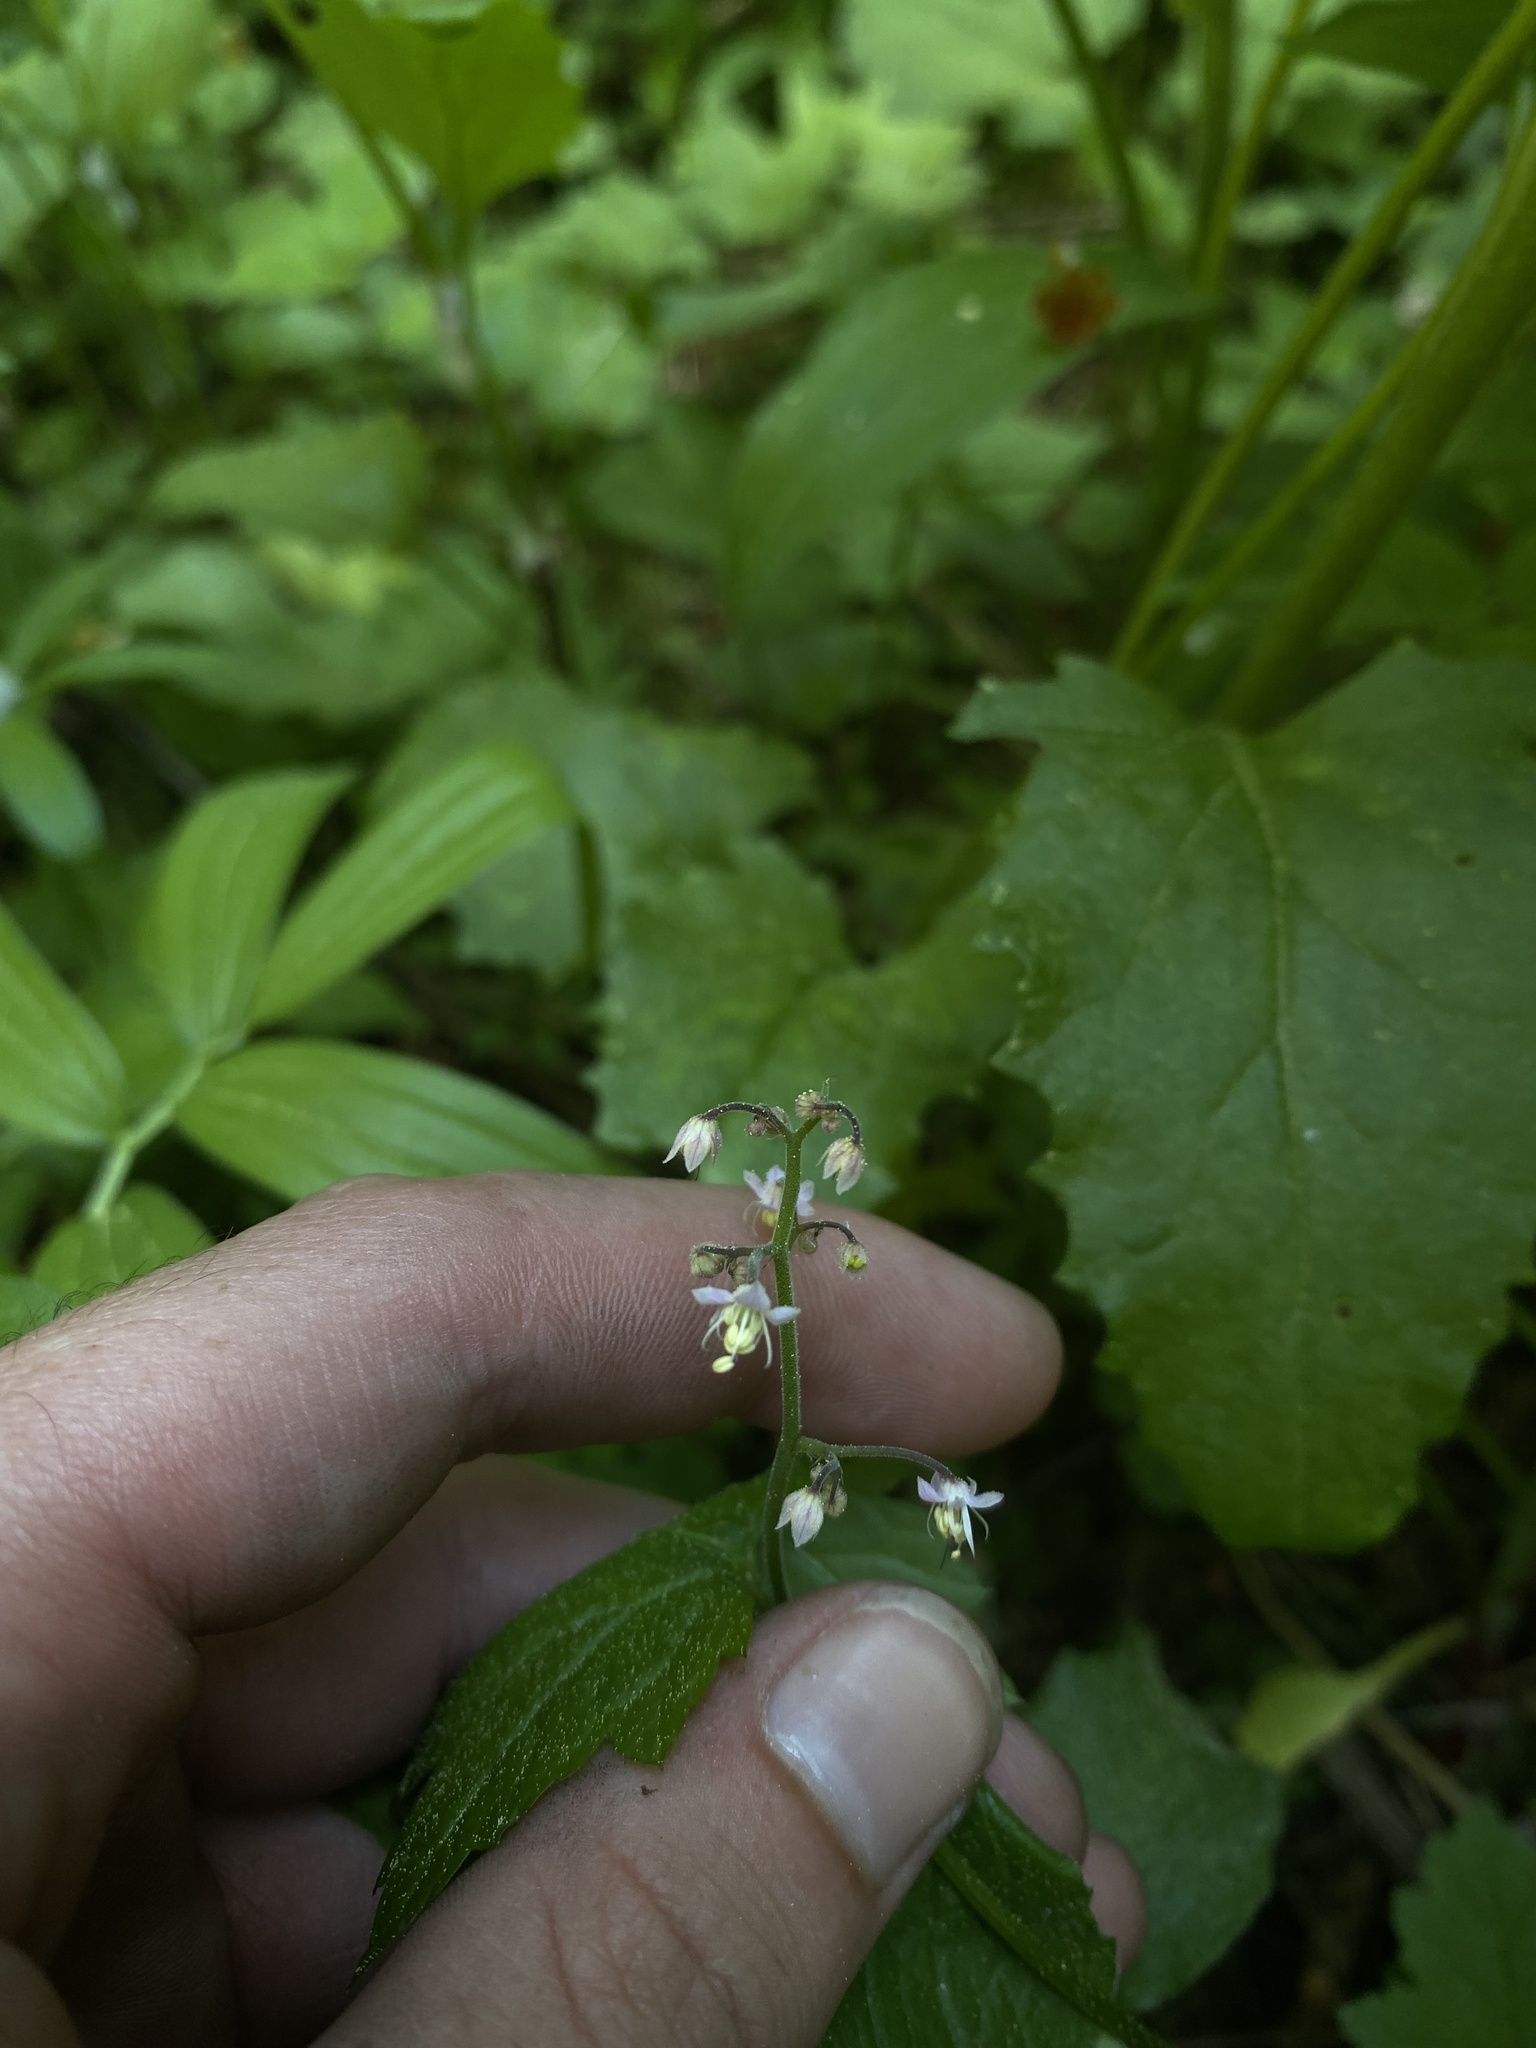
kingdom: Plantae
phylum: Tracheophyta
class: Magnoliopsida
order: Saxifragales
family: Saxifragaceae
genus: Tiarella
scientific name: Tiarella trifoliata
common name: Sugar-scoop
